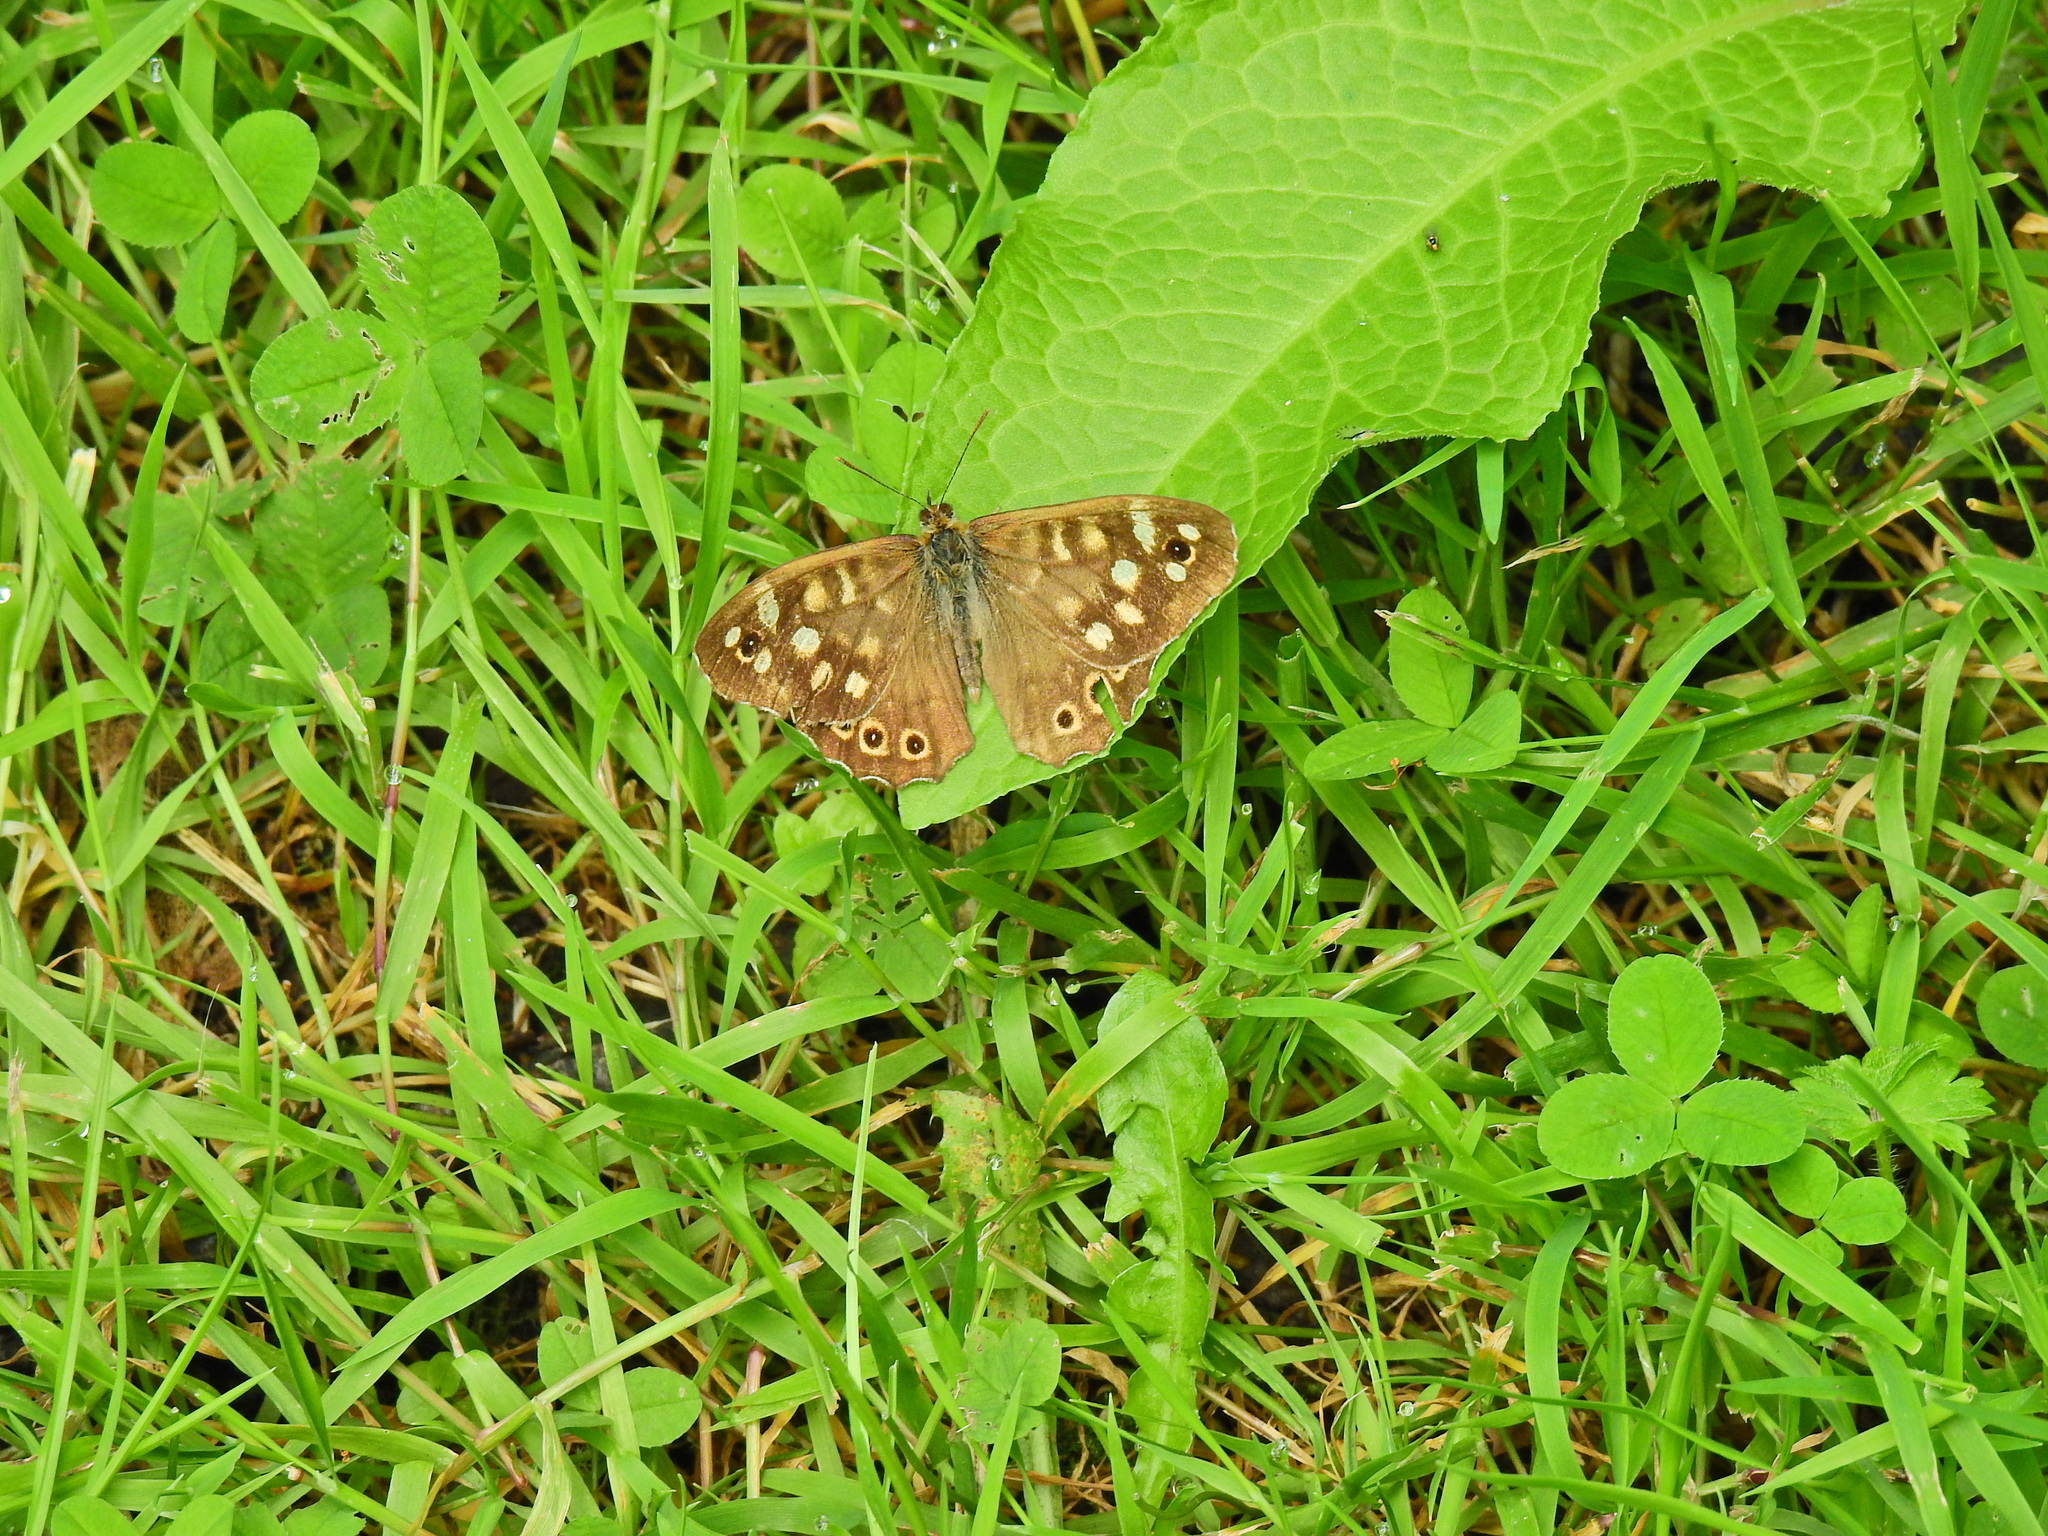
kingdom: Animalia
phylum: Arthropoda
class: Insecta
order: Lepidoptera
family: Nymphalidae
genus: Pararge
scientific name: Pararge aegeria
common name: Speckled wood
